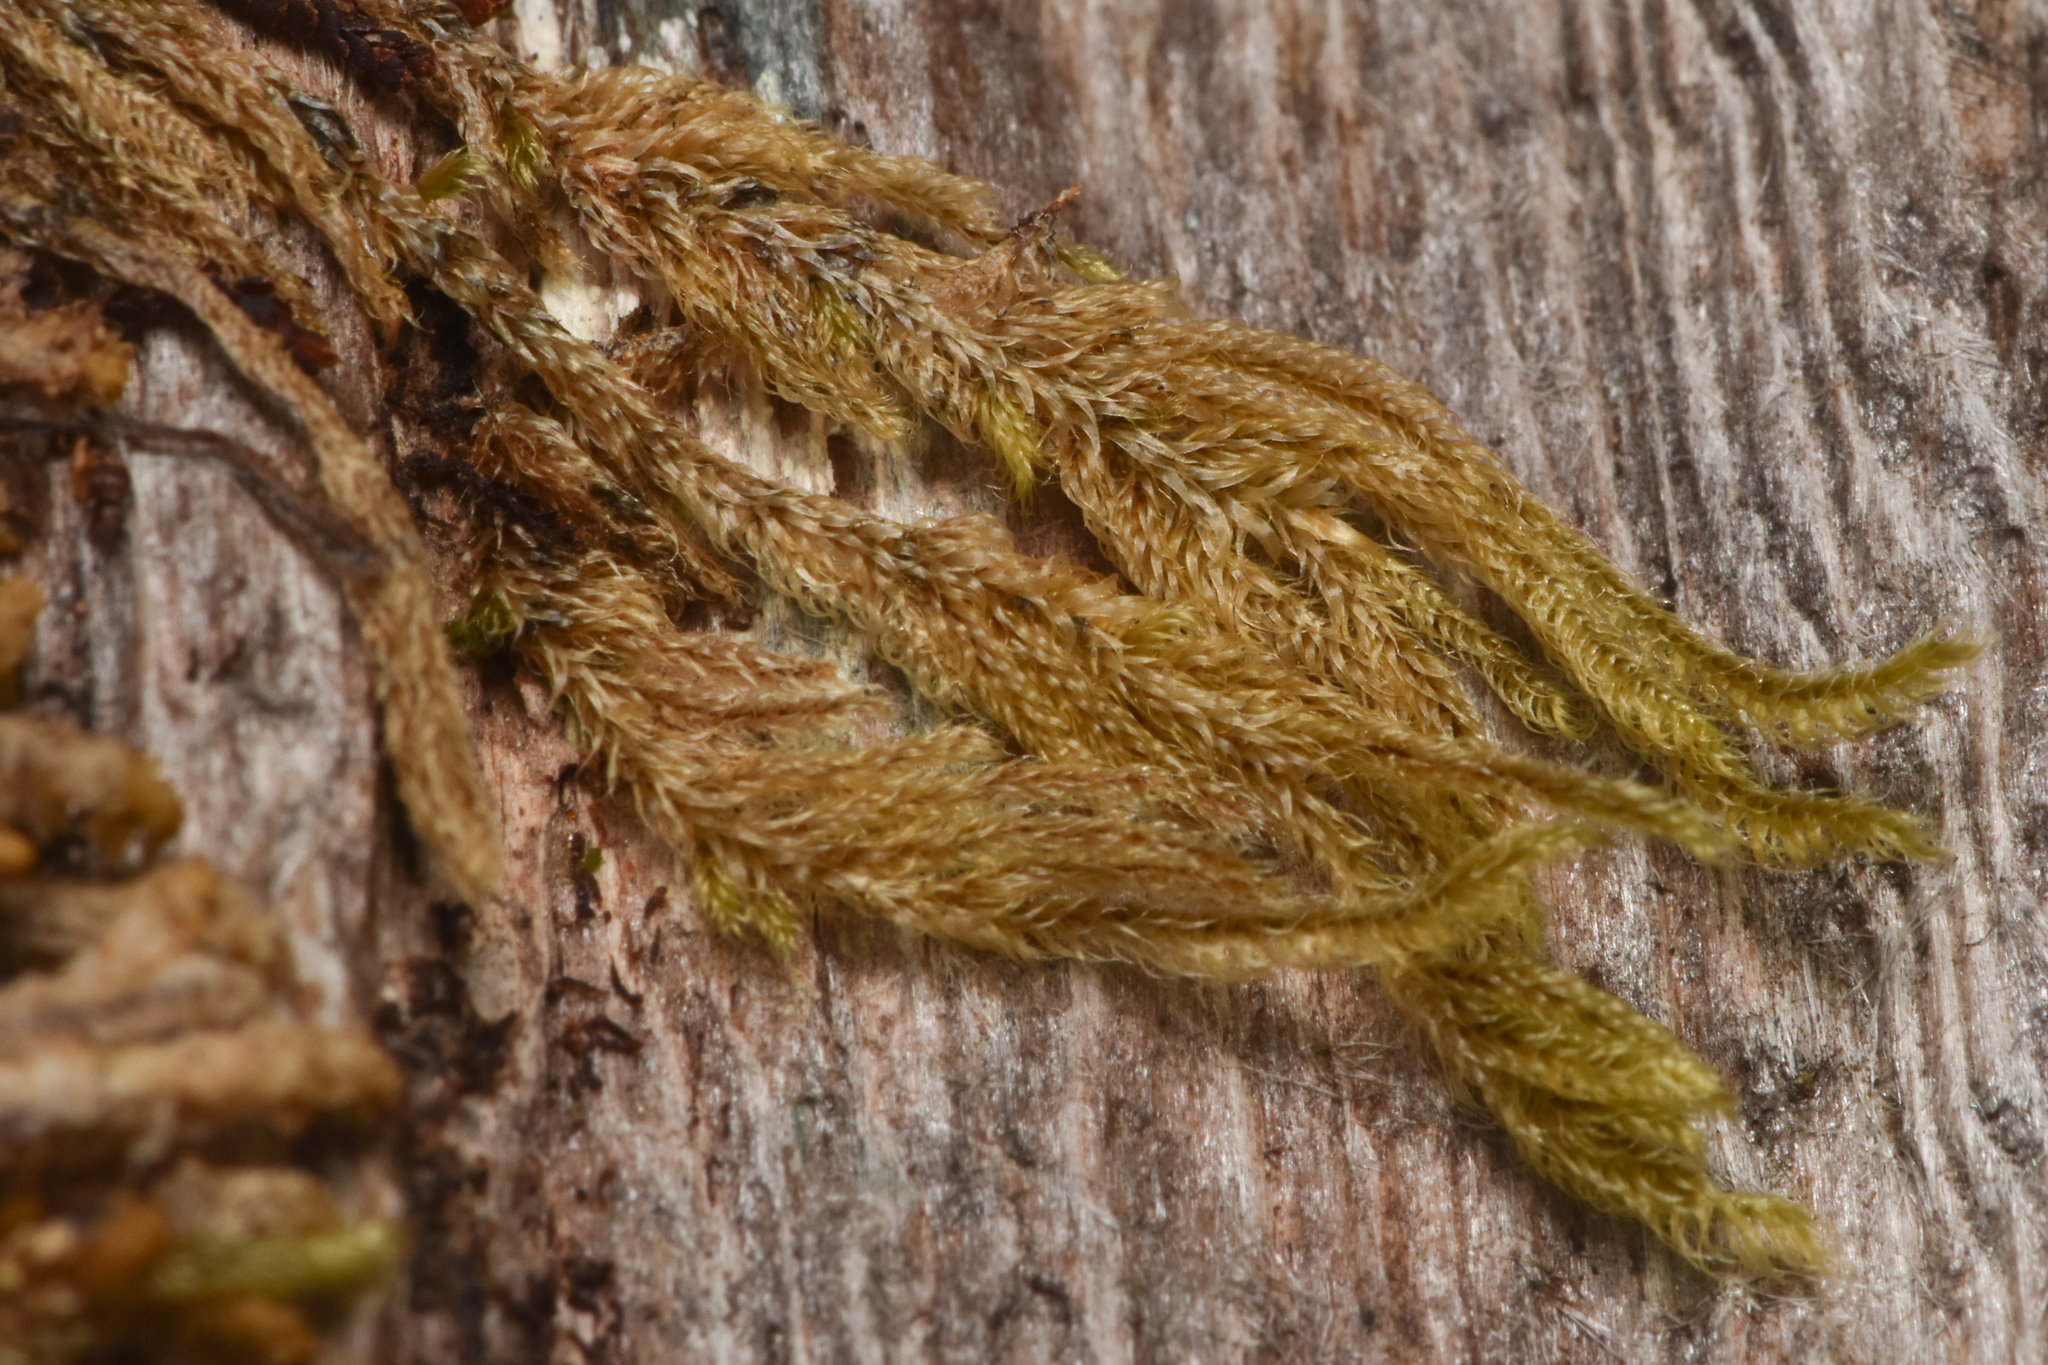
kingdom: Plantae
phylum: Bryophyta
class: Bryopsida
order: Hypnales
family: Pylaisiadelphaceae
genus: Trochophyllohypnum
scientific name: Trochophyllohypnum circinale
